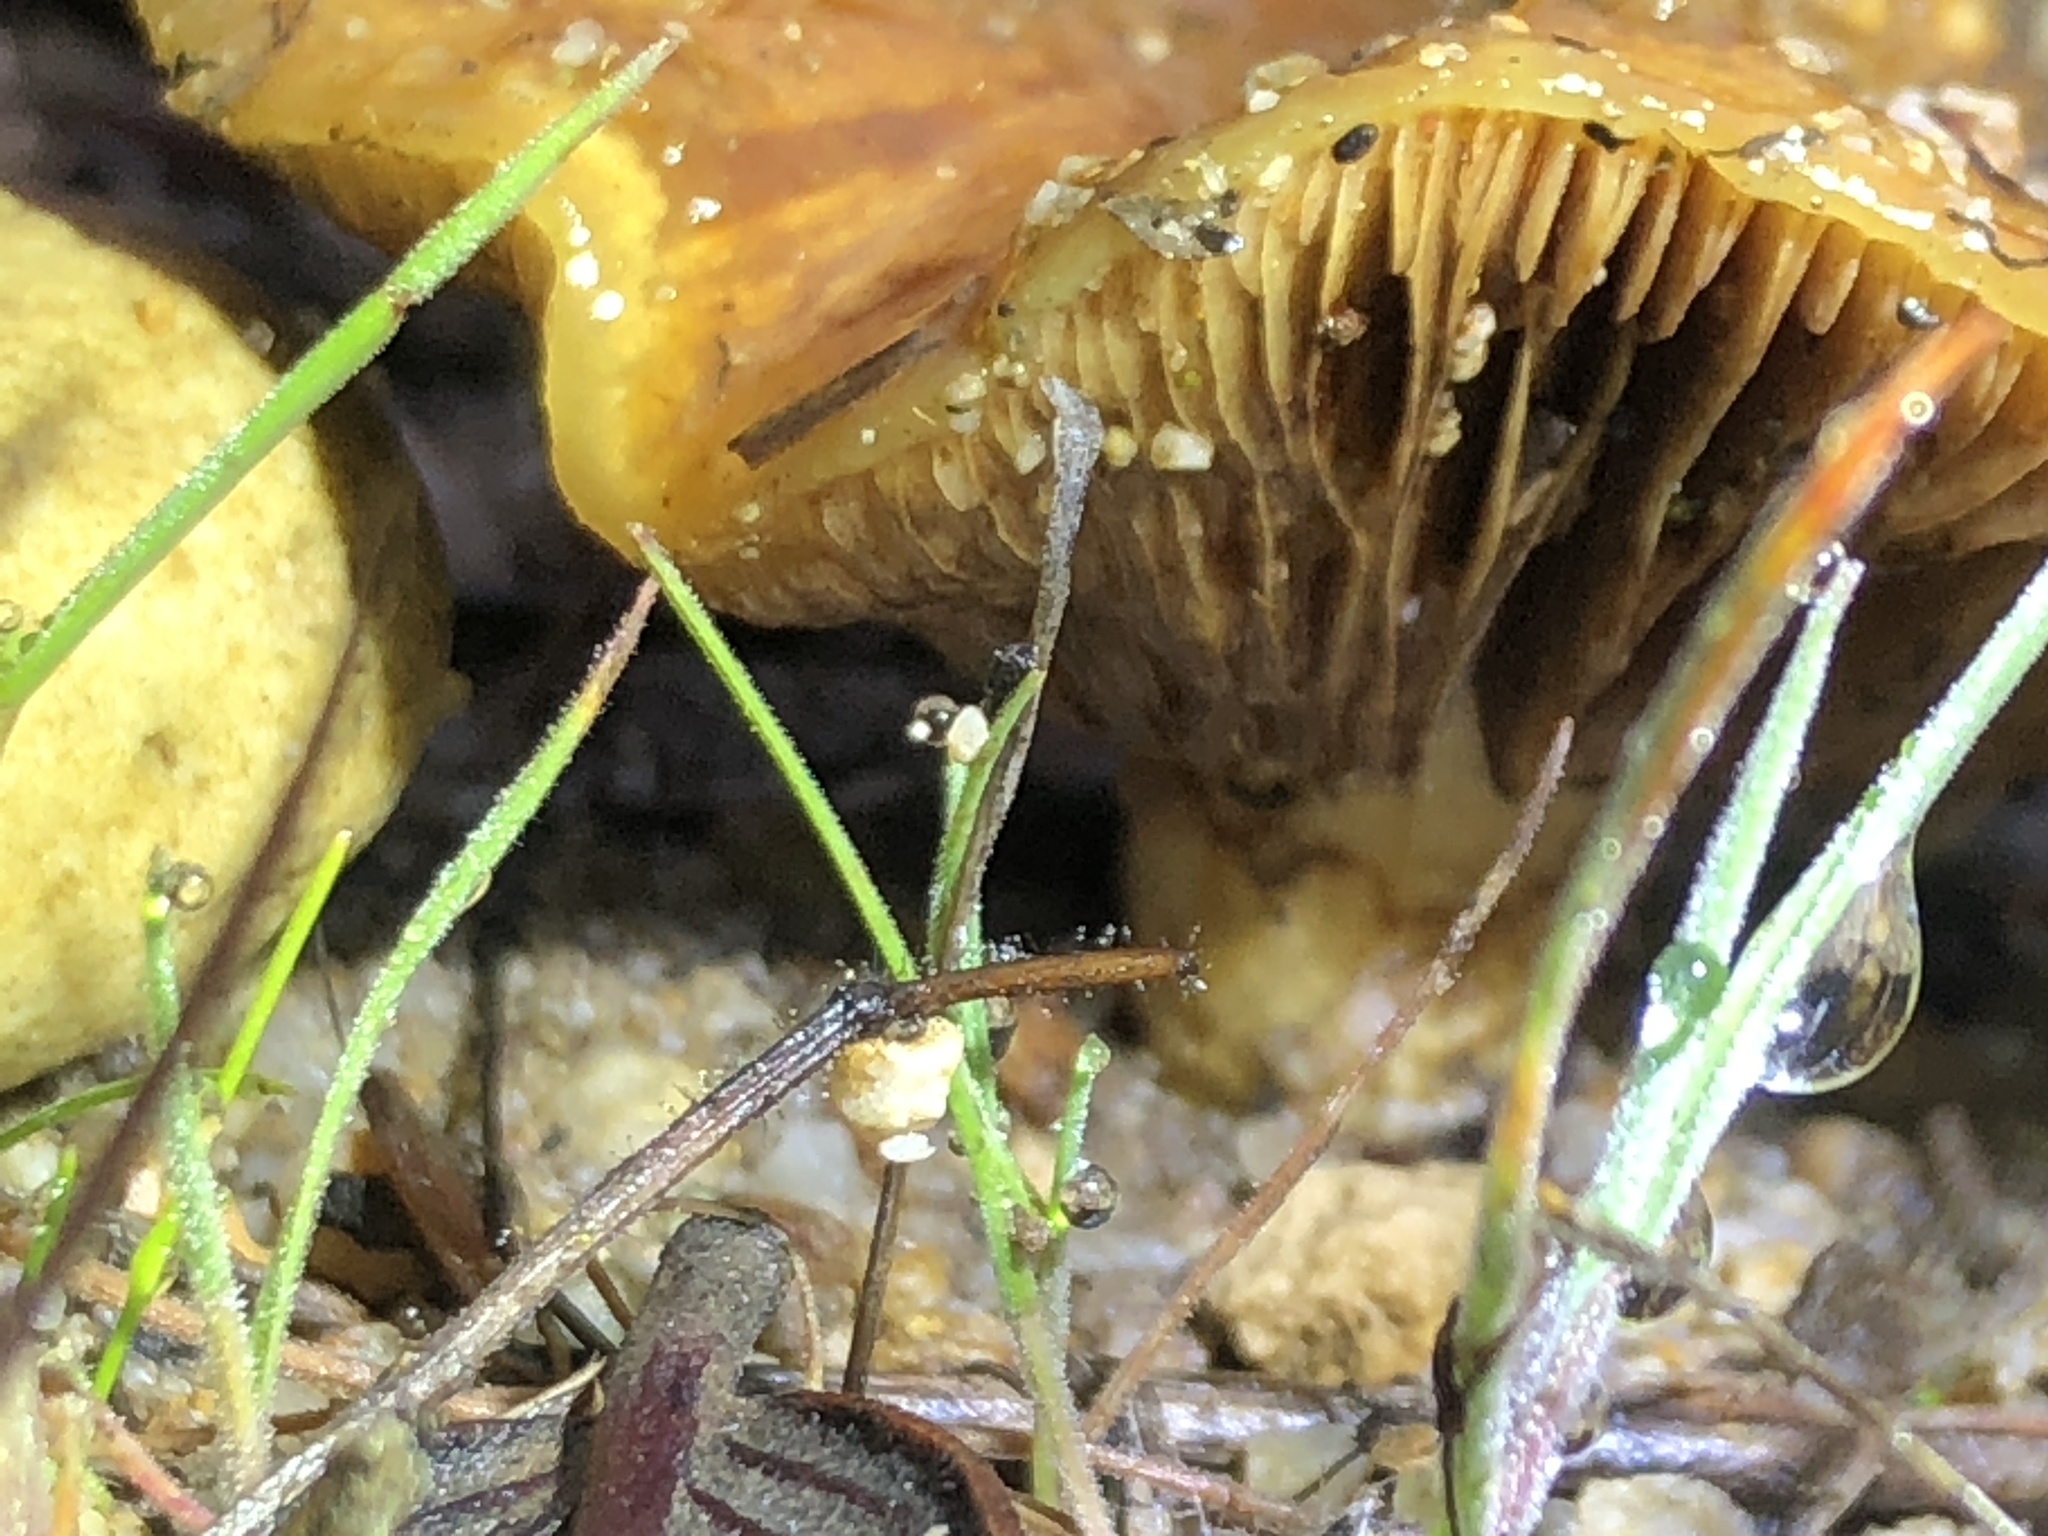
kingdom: Fungi
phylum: Basidiomycota
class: Agaricomycetes
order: Agaricales
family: Omphalotaceae
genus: Omphalotus
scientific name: Omphalotus olivascens
